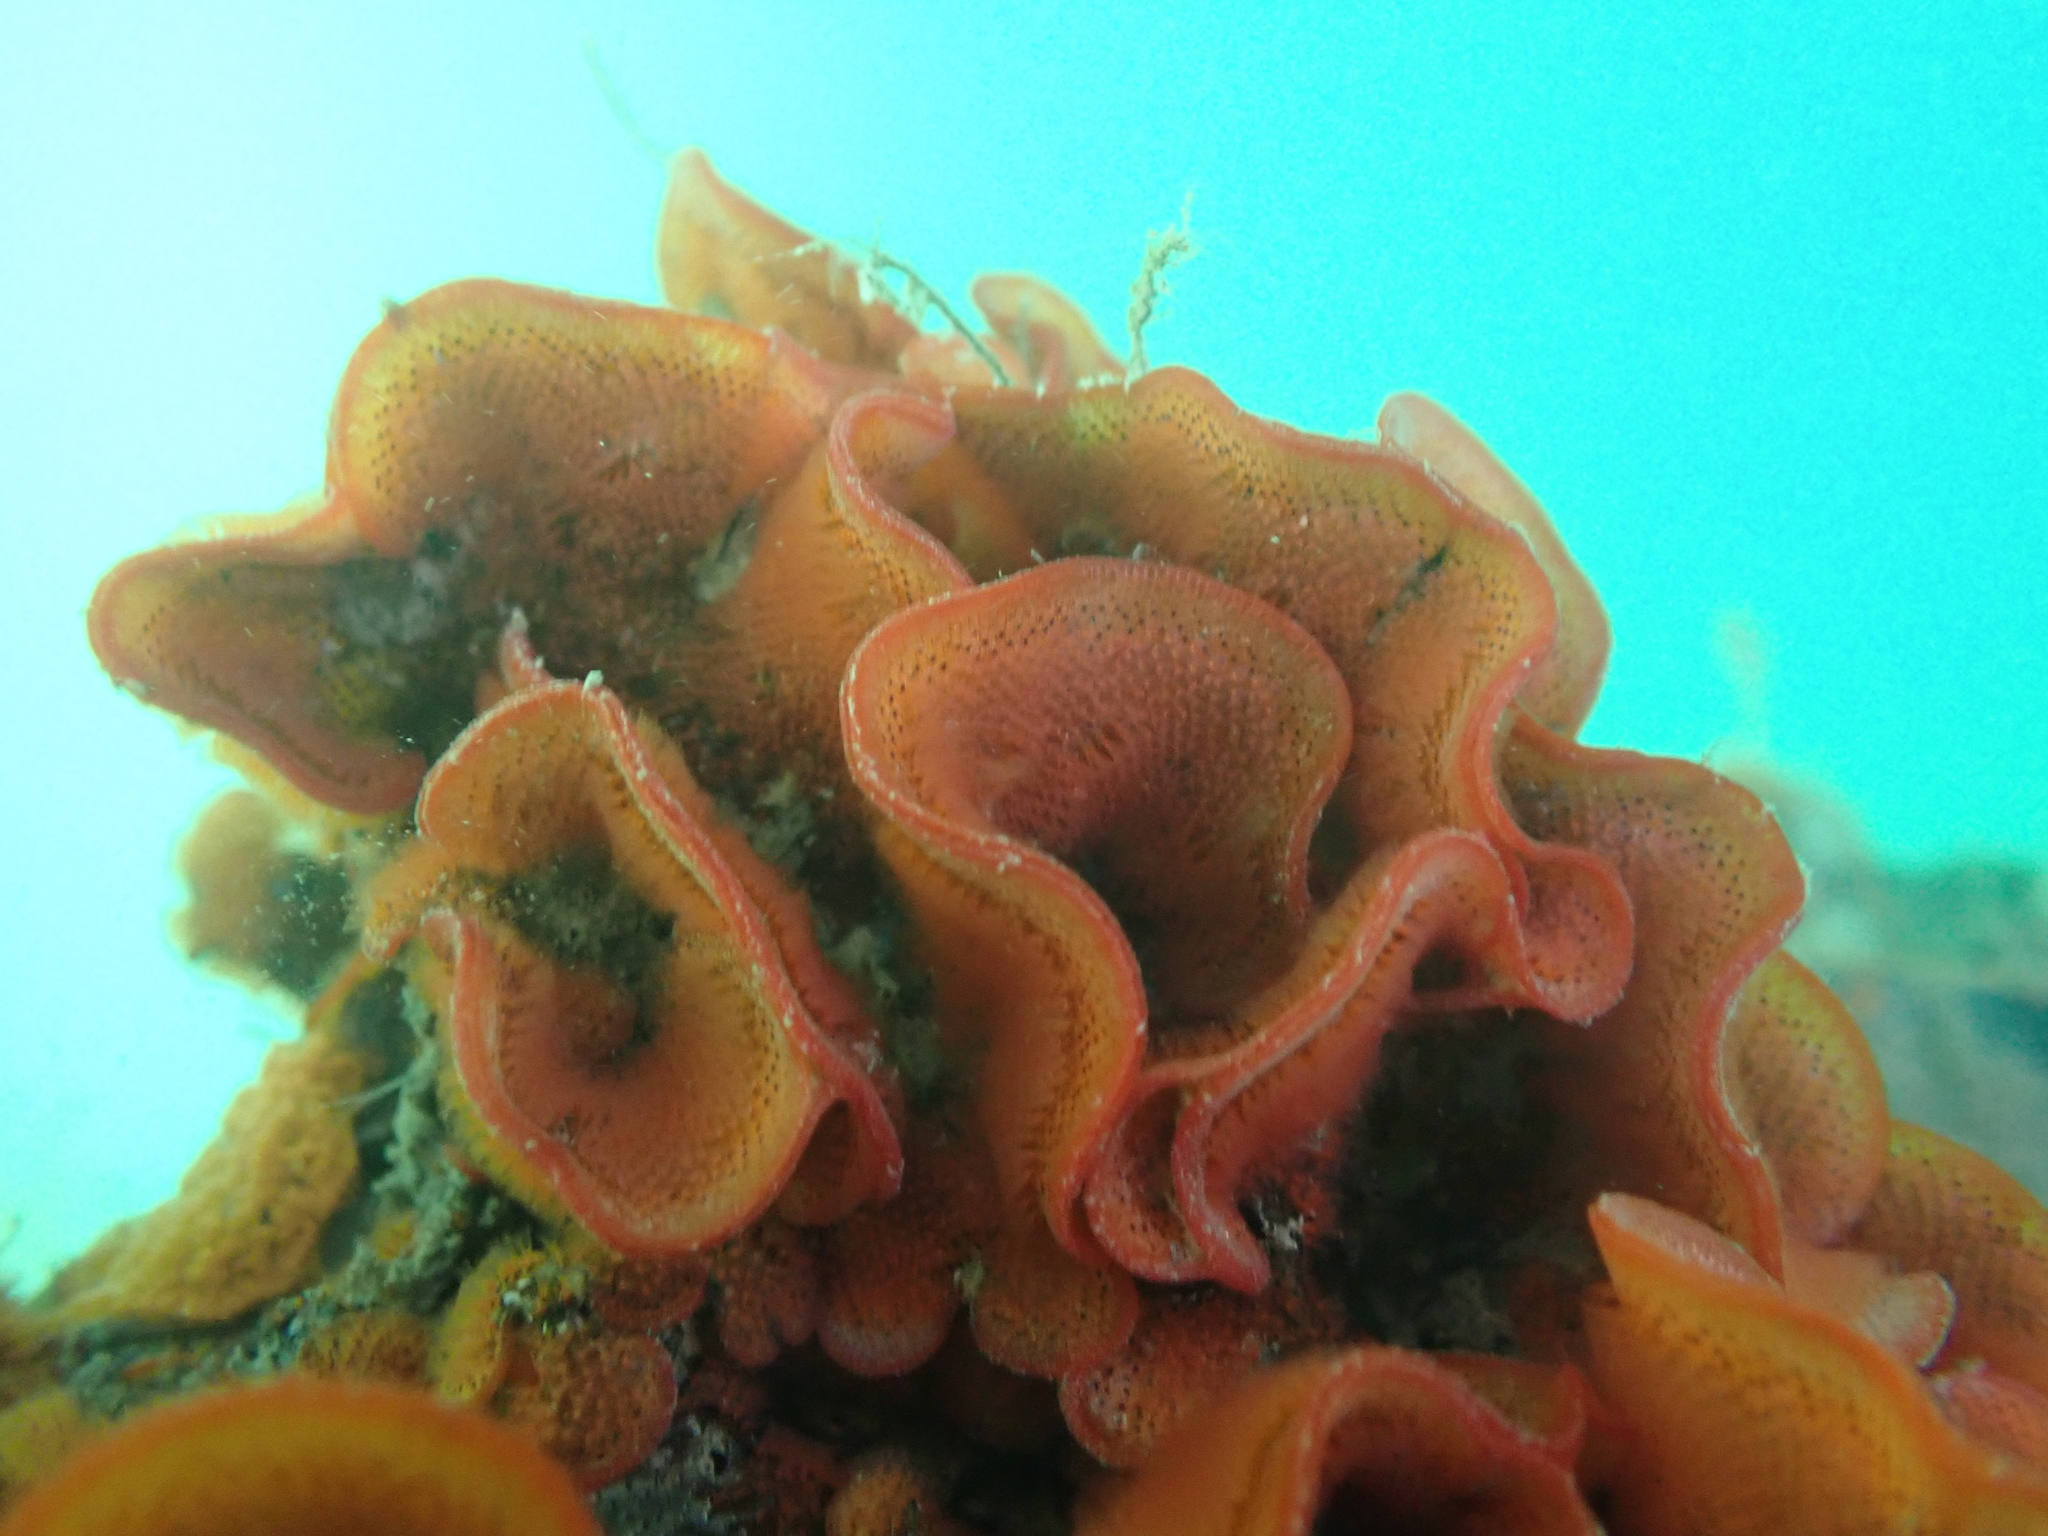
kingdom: Animalia
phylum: Bryozoa
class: Gymnolaemata
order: Cheilostomatida
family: Watersiporidae
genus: Watersipora
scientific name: Watersipora subtorquata
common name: Bryozoan
